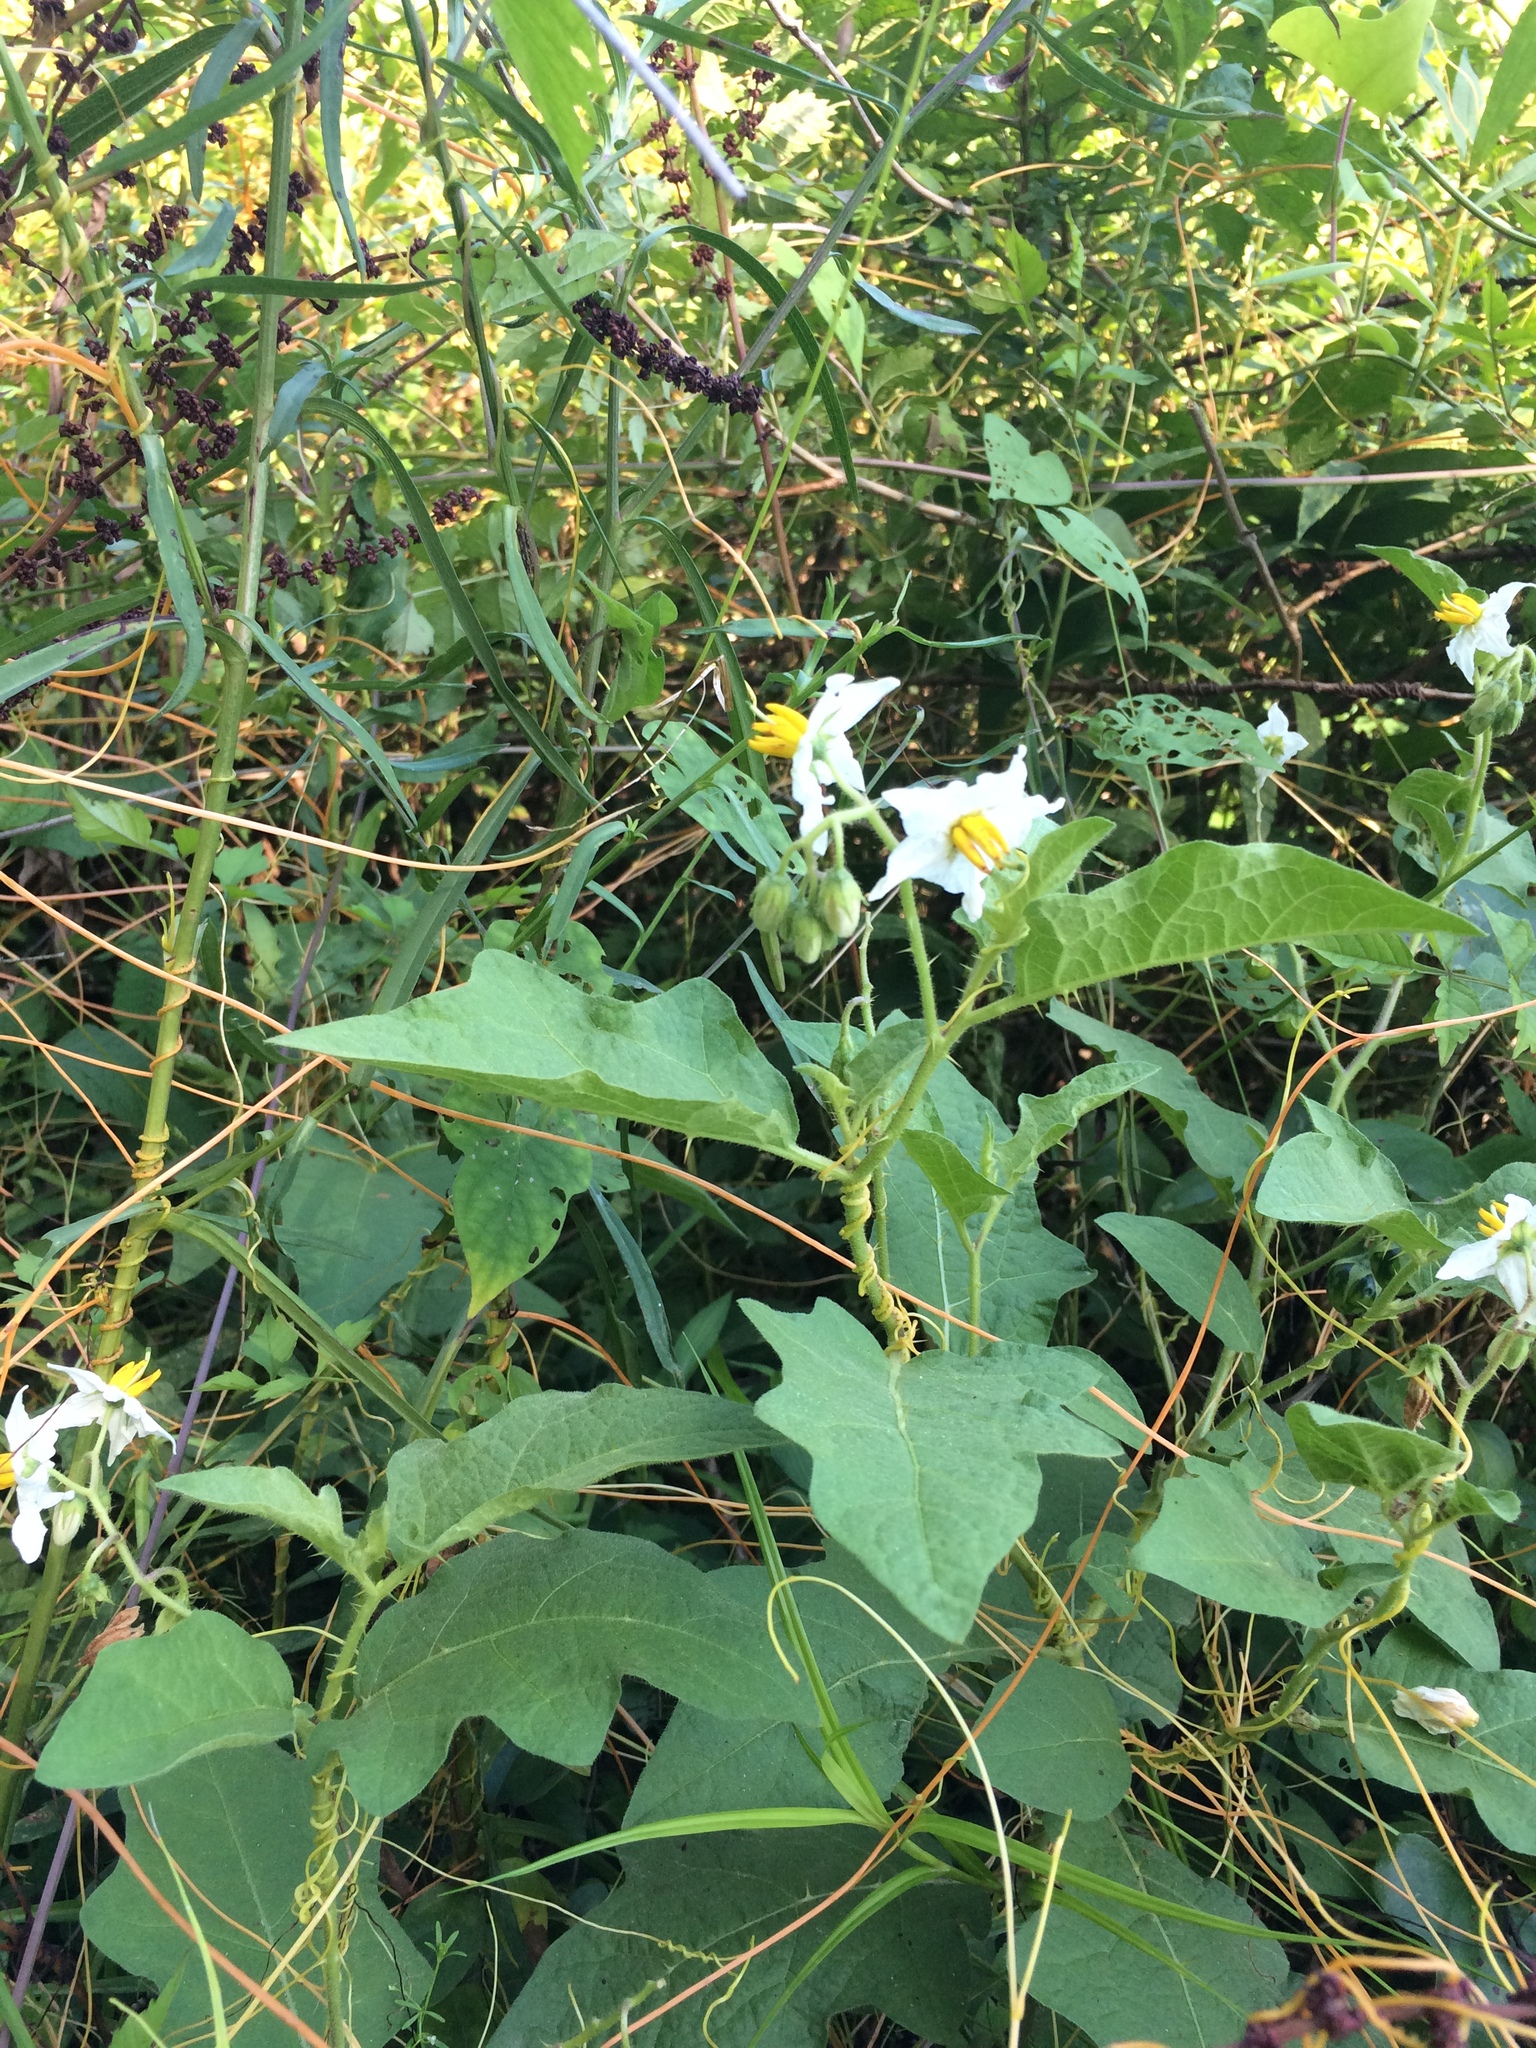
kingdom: Plantae
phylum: Tracheophyta
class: Magnoliopsida
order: Solanales
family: Solanaceae
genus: Solanum
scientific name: Solanum carolinense
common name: Horse-nettle
